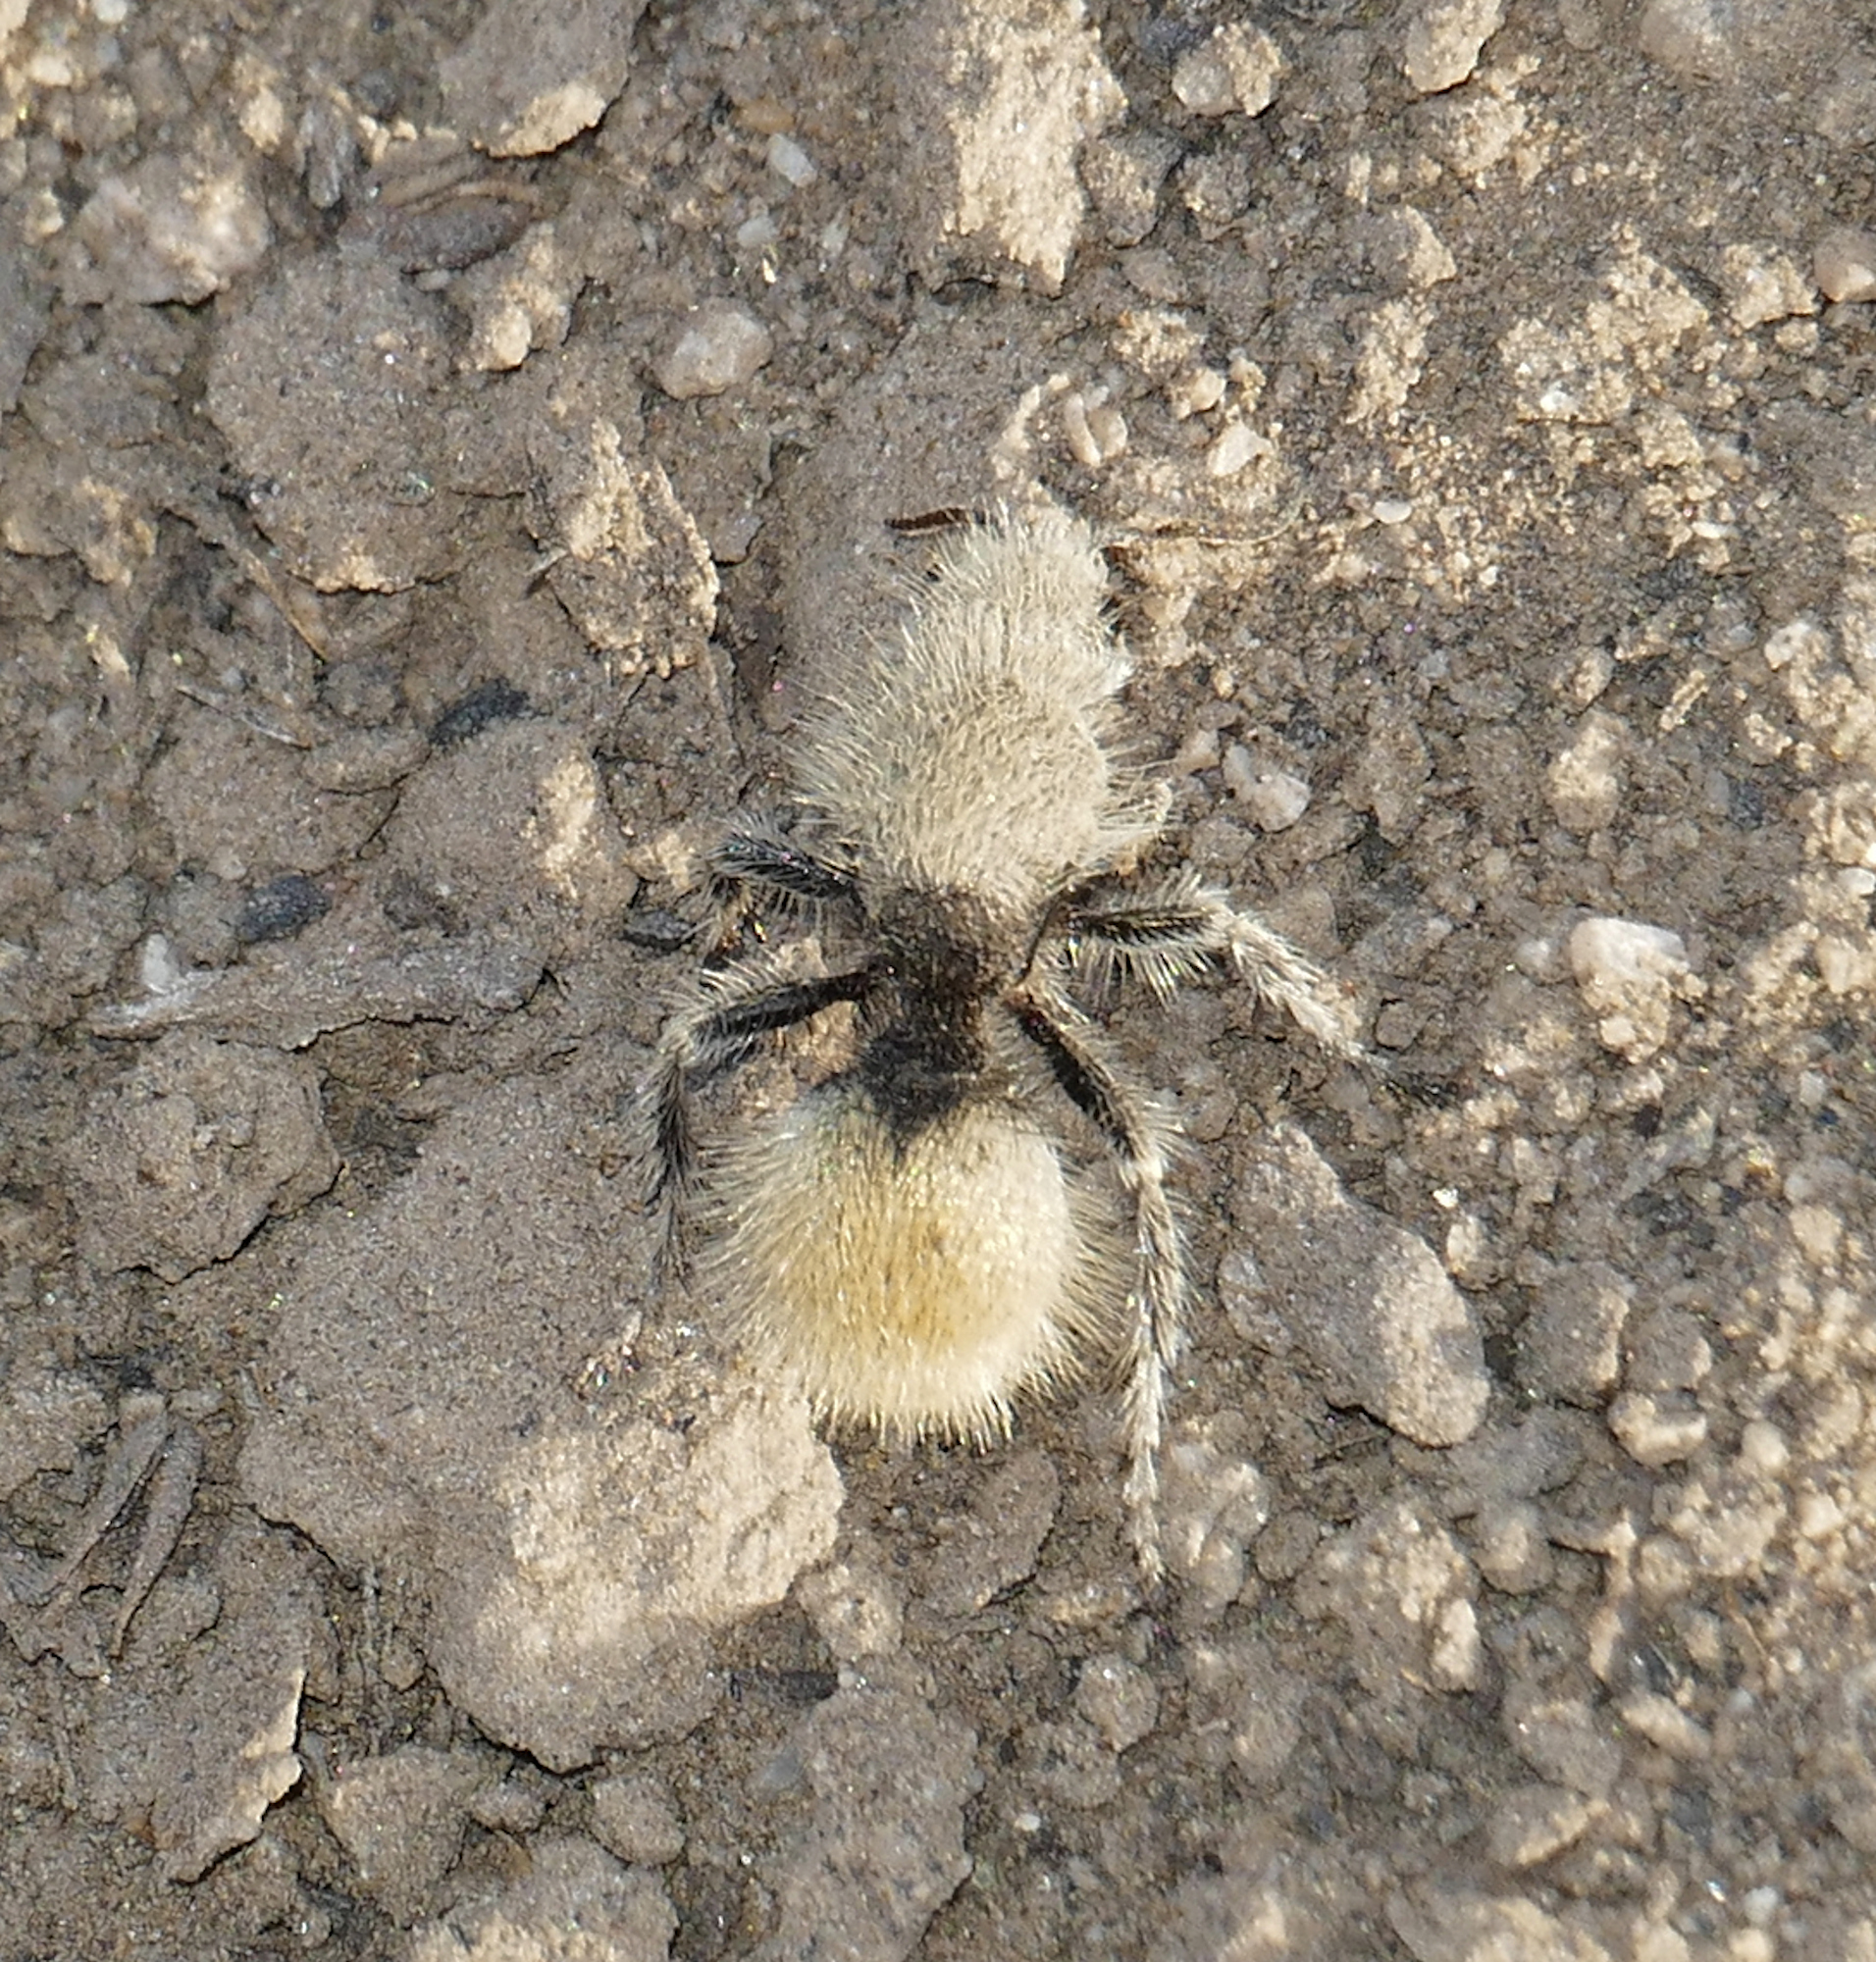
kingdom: Animalia
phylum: Arthropoda
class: Insecta
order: Hymenoptera
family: Mutillidae
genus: Dasymutilla
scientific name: Dasymutilla
